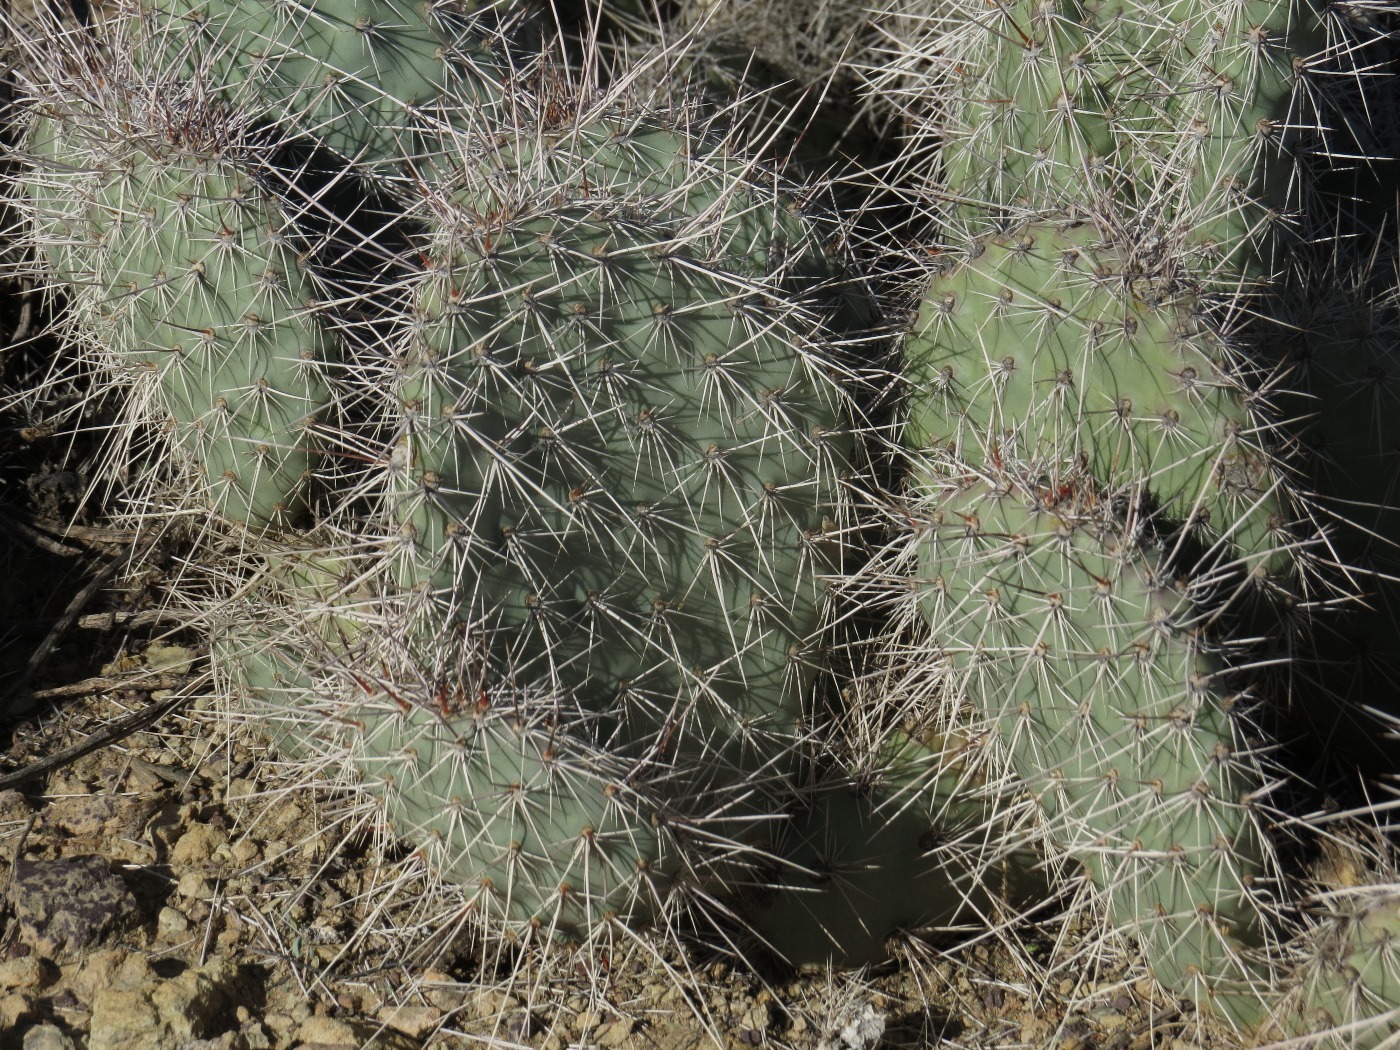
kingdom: Plantae
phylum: Tracheophyta
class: Magnoliopsida
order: Caryophyllales
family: Cactaceae
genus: Opuntia
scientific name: Opuntia polyacantha
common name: Plains prickly-pear
